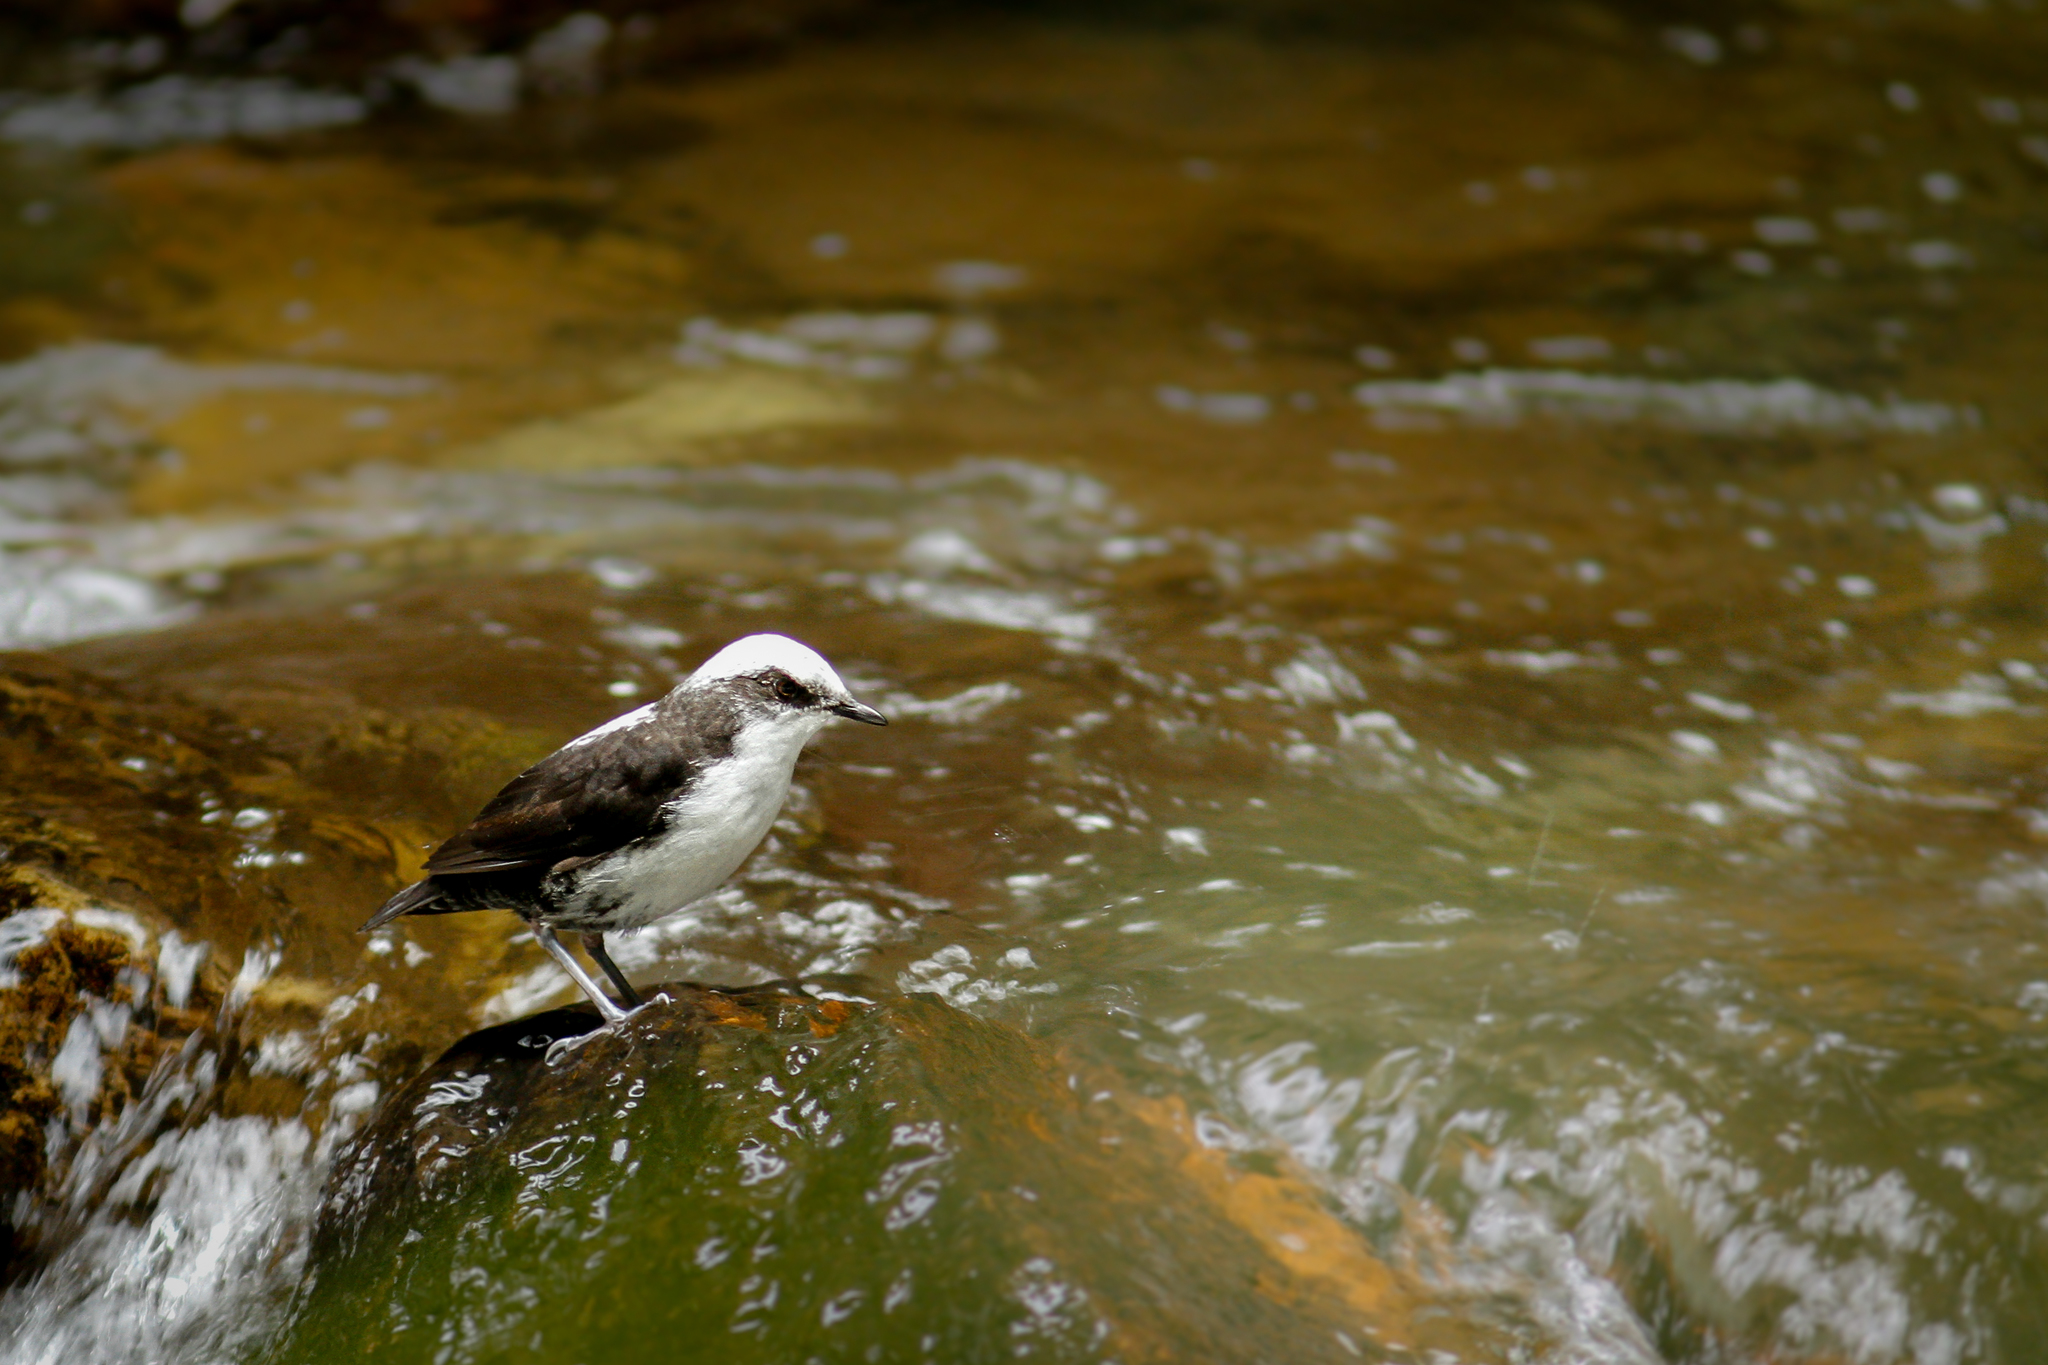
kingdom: Animalia
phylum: Chordata
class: Aves
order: Passeriformes
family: Cinclidae
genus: Cinclus
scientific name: Cinclus leucocephalus
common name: White-capped dipper
